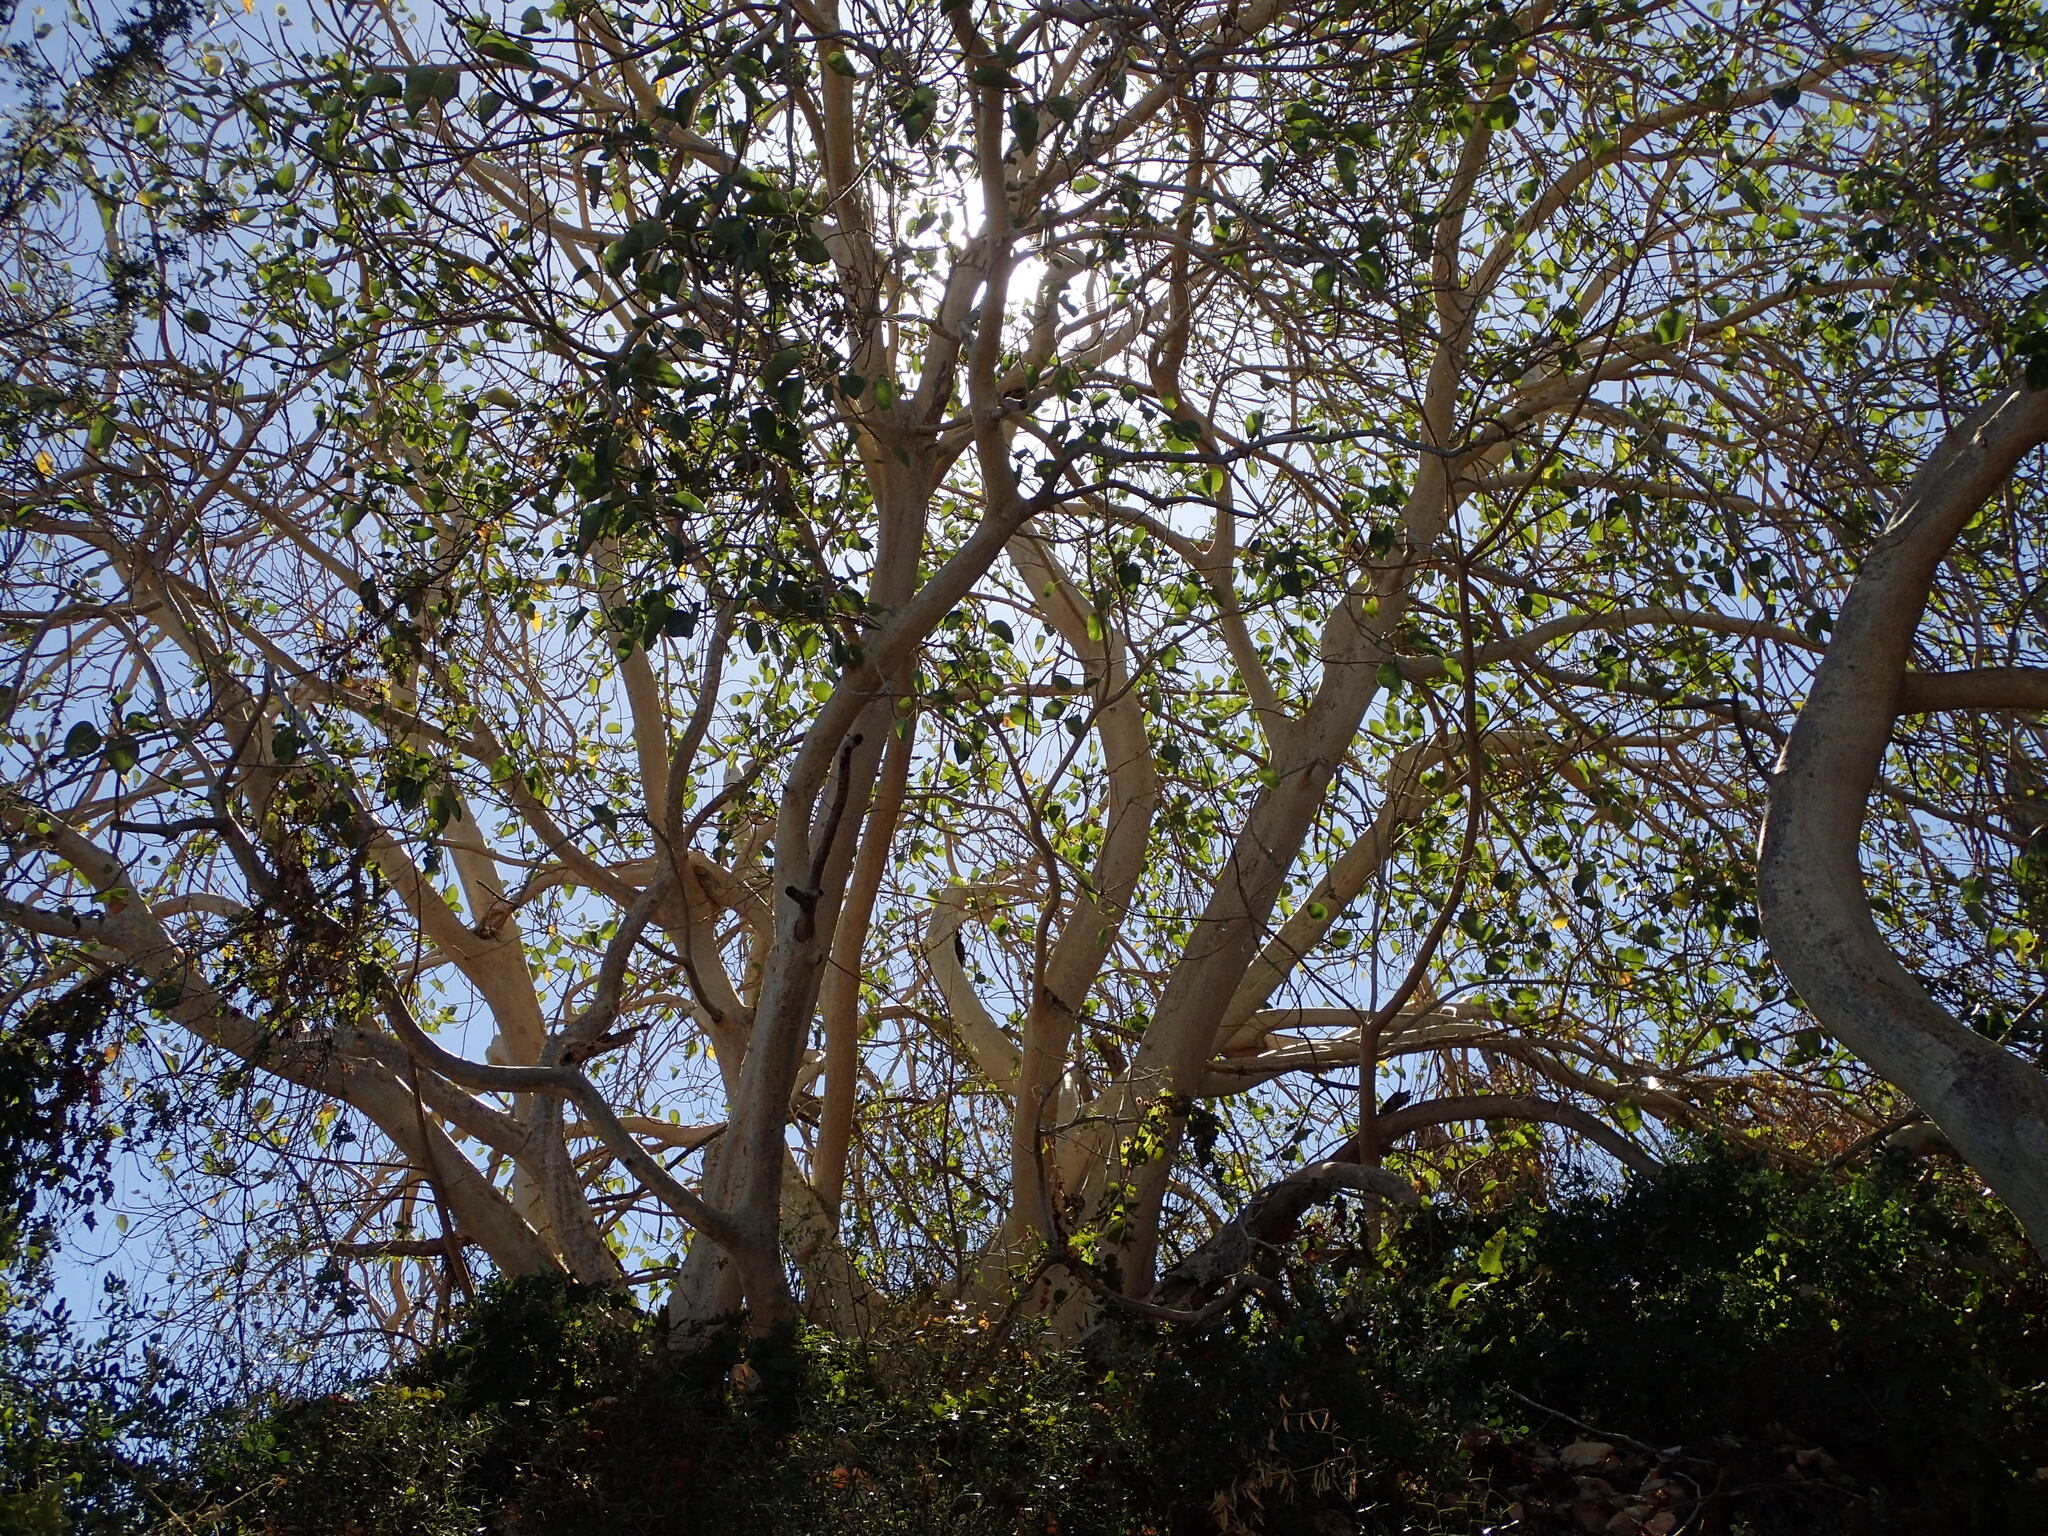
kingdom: Plantae
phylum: Tracheophyta
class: Magnoliopsida
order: Rosales
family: Moraceae
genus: Ficus
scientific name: Ficus petiolaris
